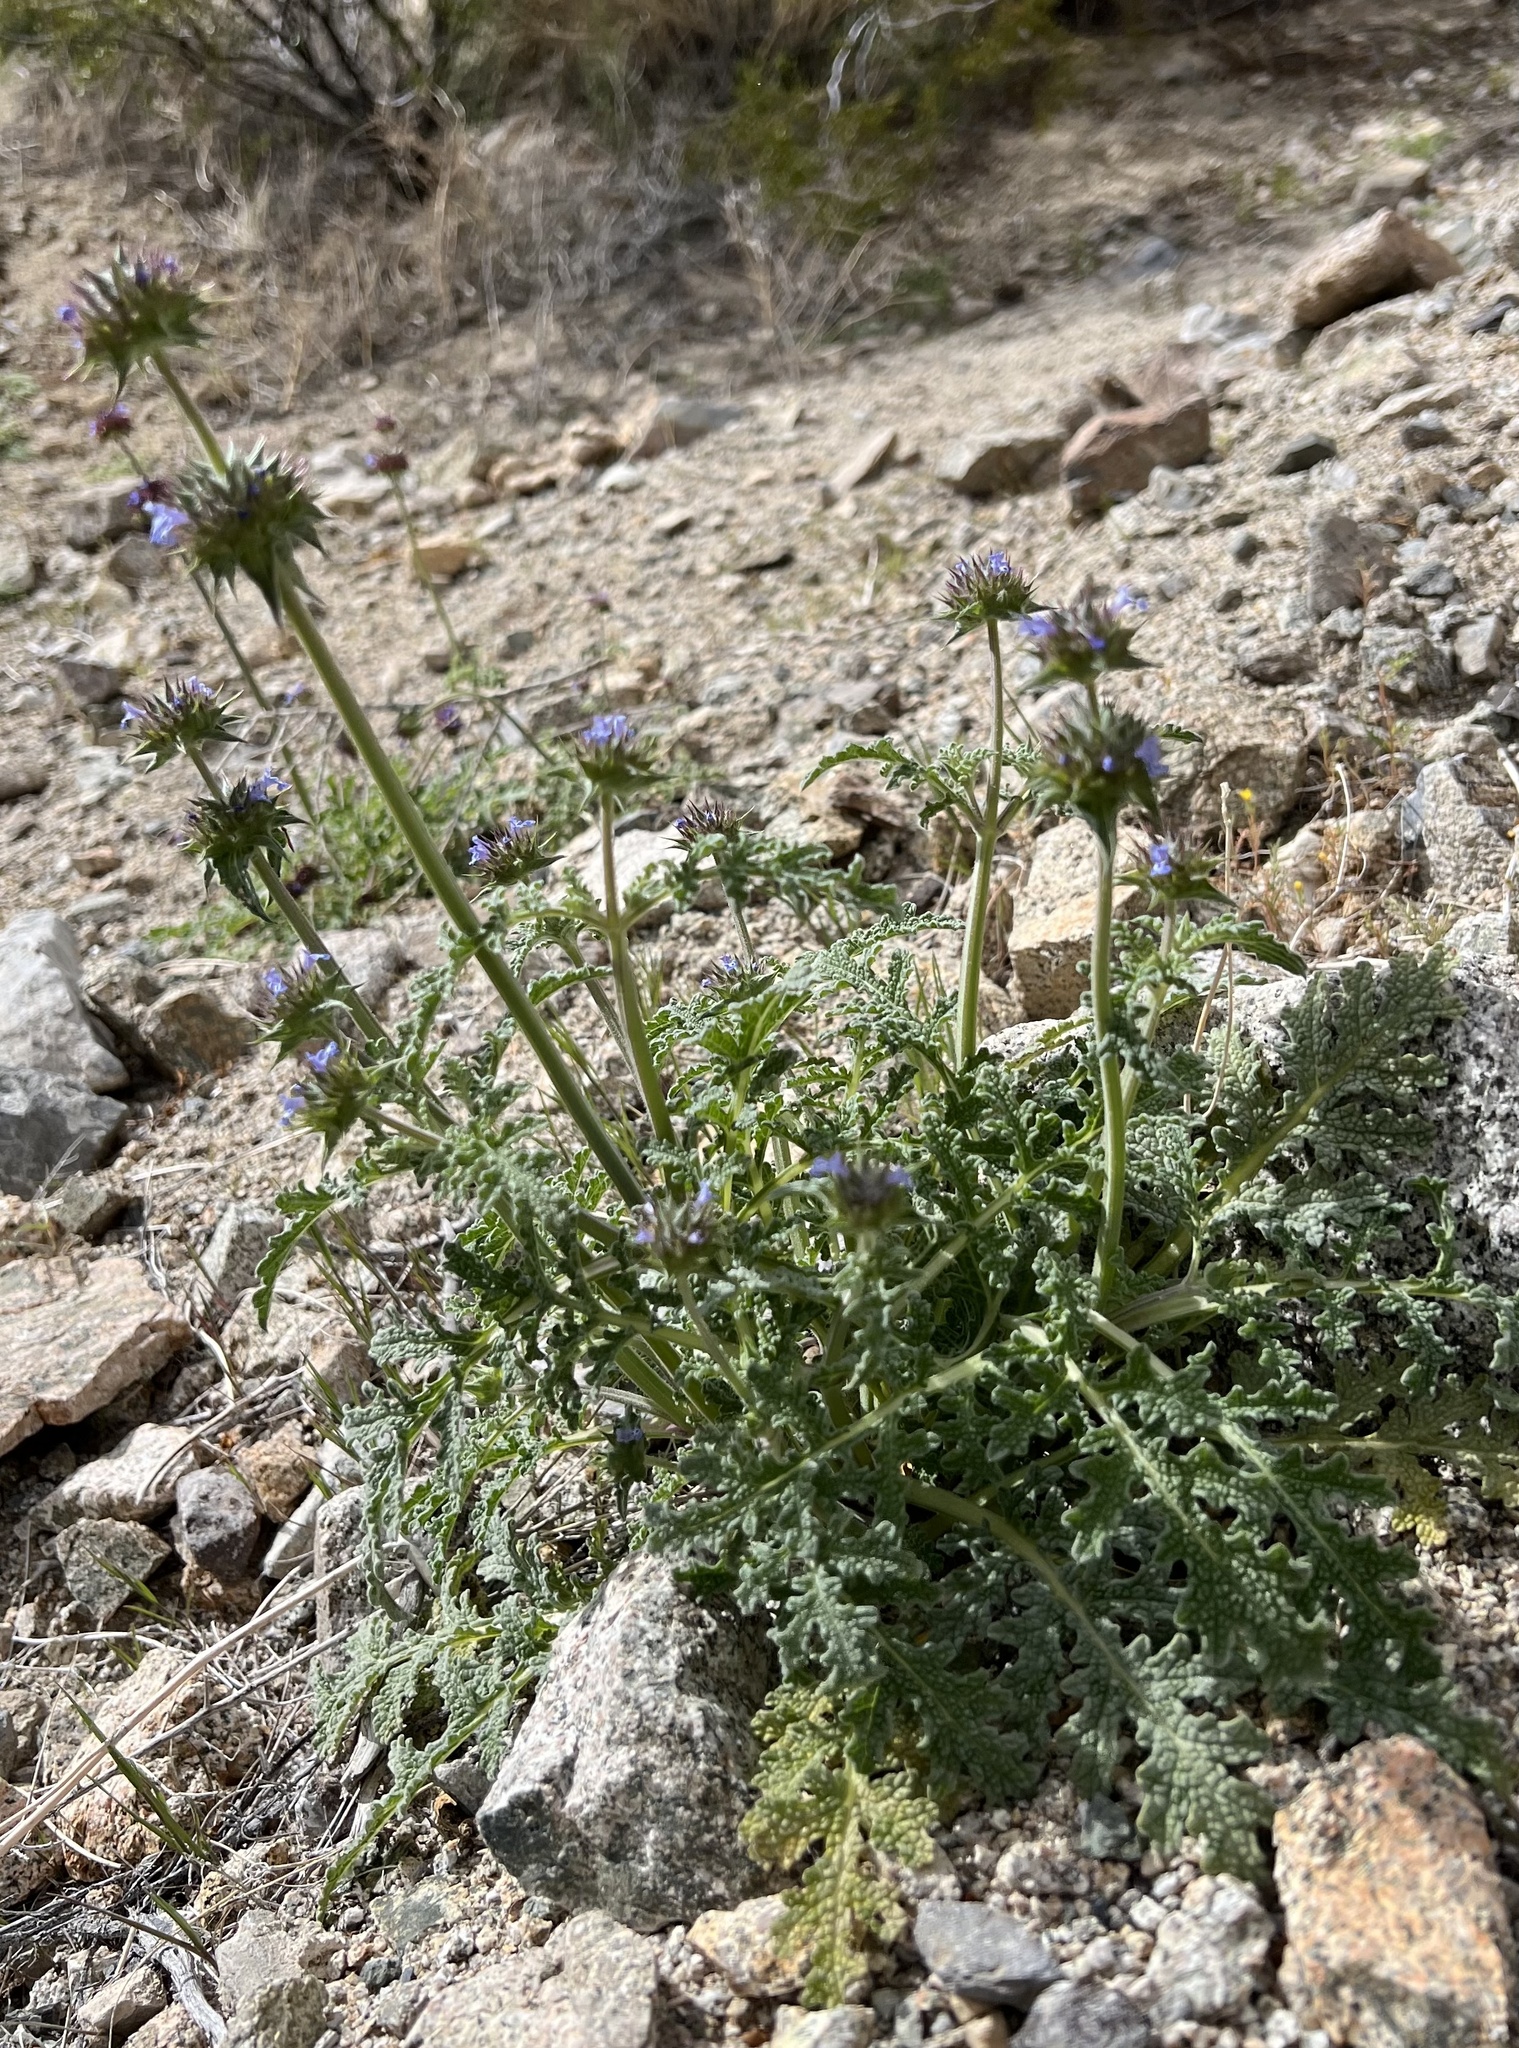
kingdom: Plantae
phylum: Tracheophyta
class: Magnoliopsida
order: Lamiales
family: Lamiaceae
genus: Salvia
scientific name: Salvia columbariae
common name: Chia
